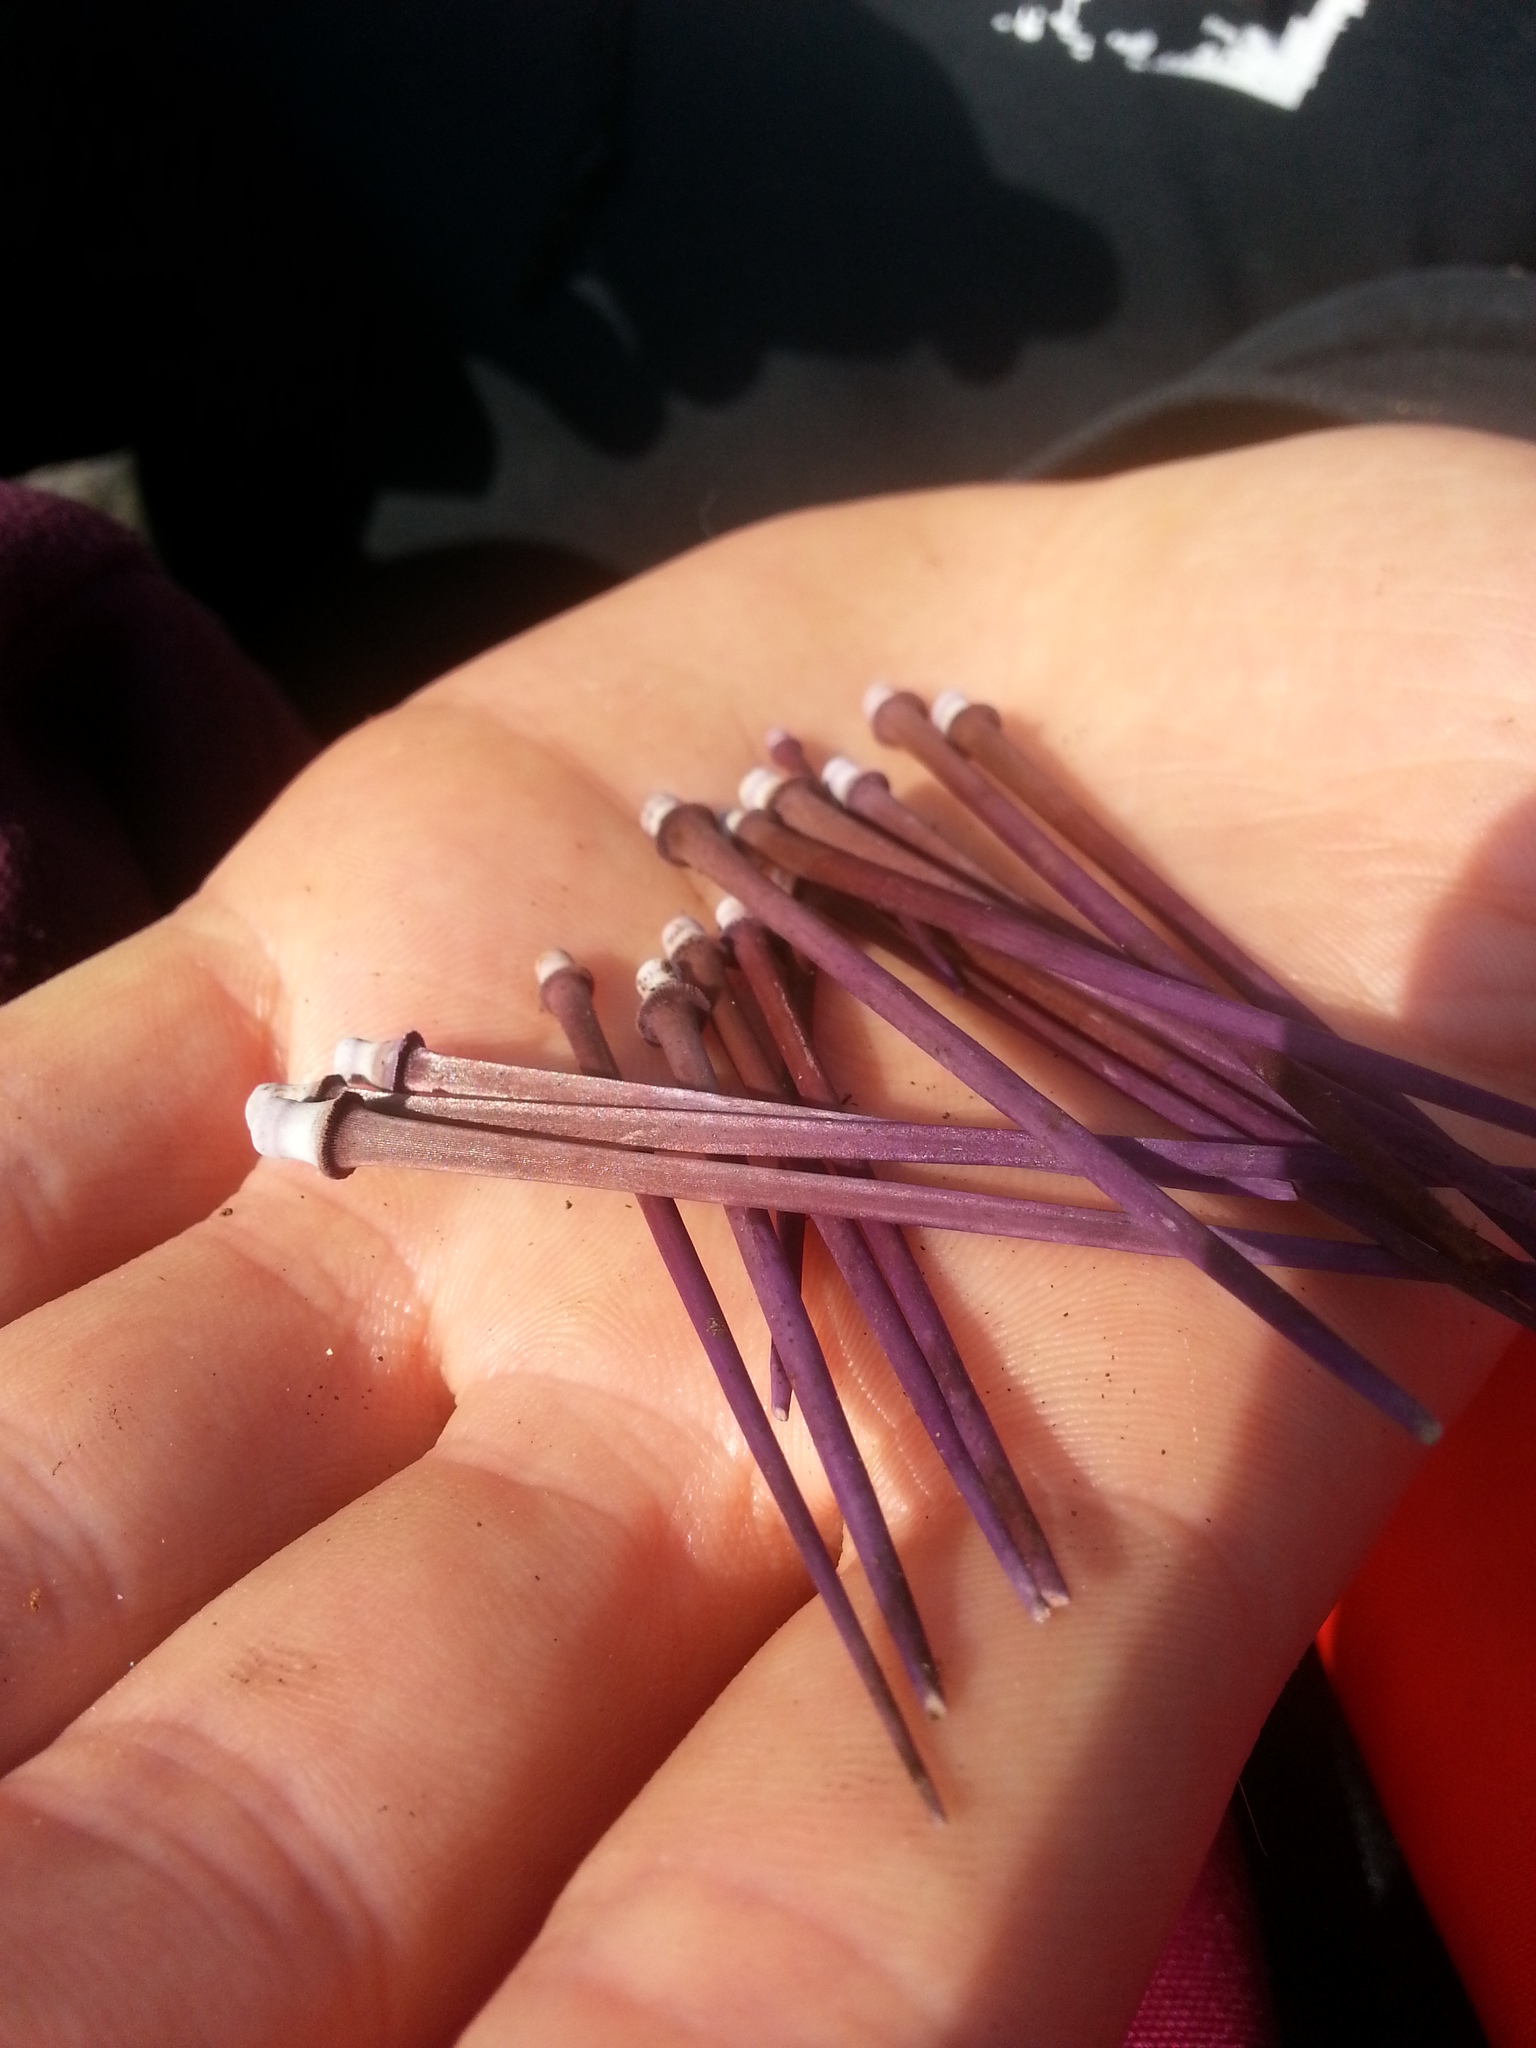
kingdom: Animalia
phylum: Echinodermata
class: Echinoidea
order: Camarodonta
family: Strongylocentrotidae
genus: Strongylocentrotus
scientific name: Strongylocentrotus purpuratus
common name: Purple sea urchin
